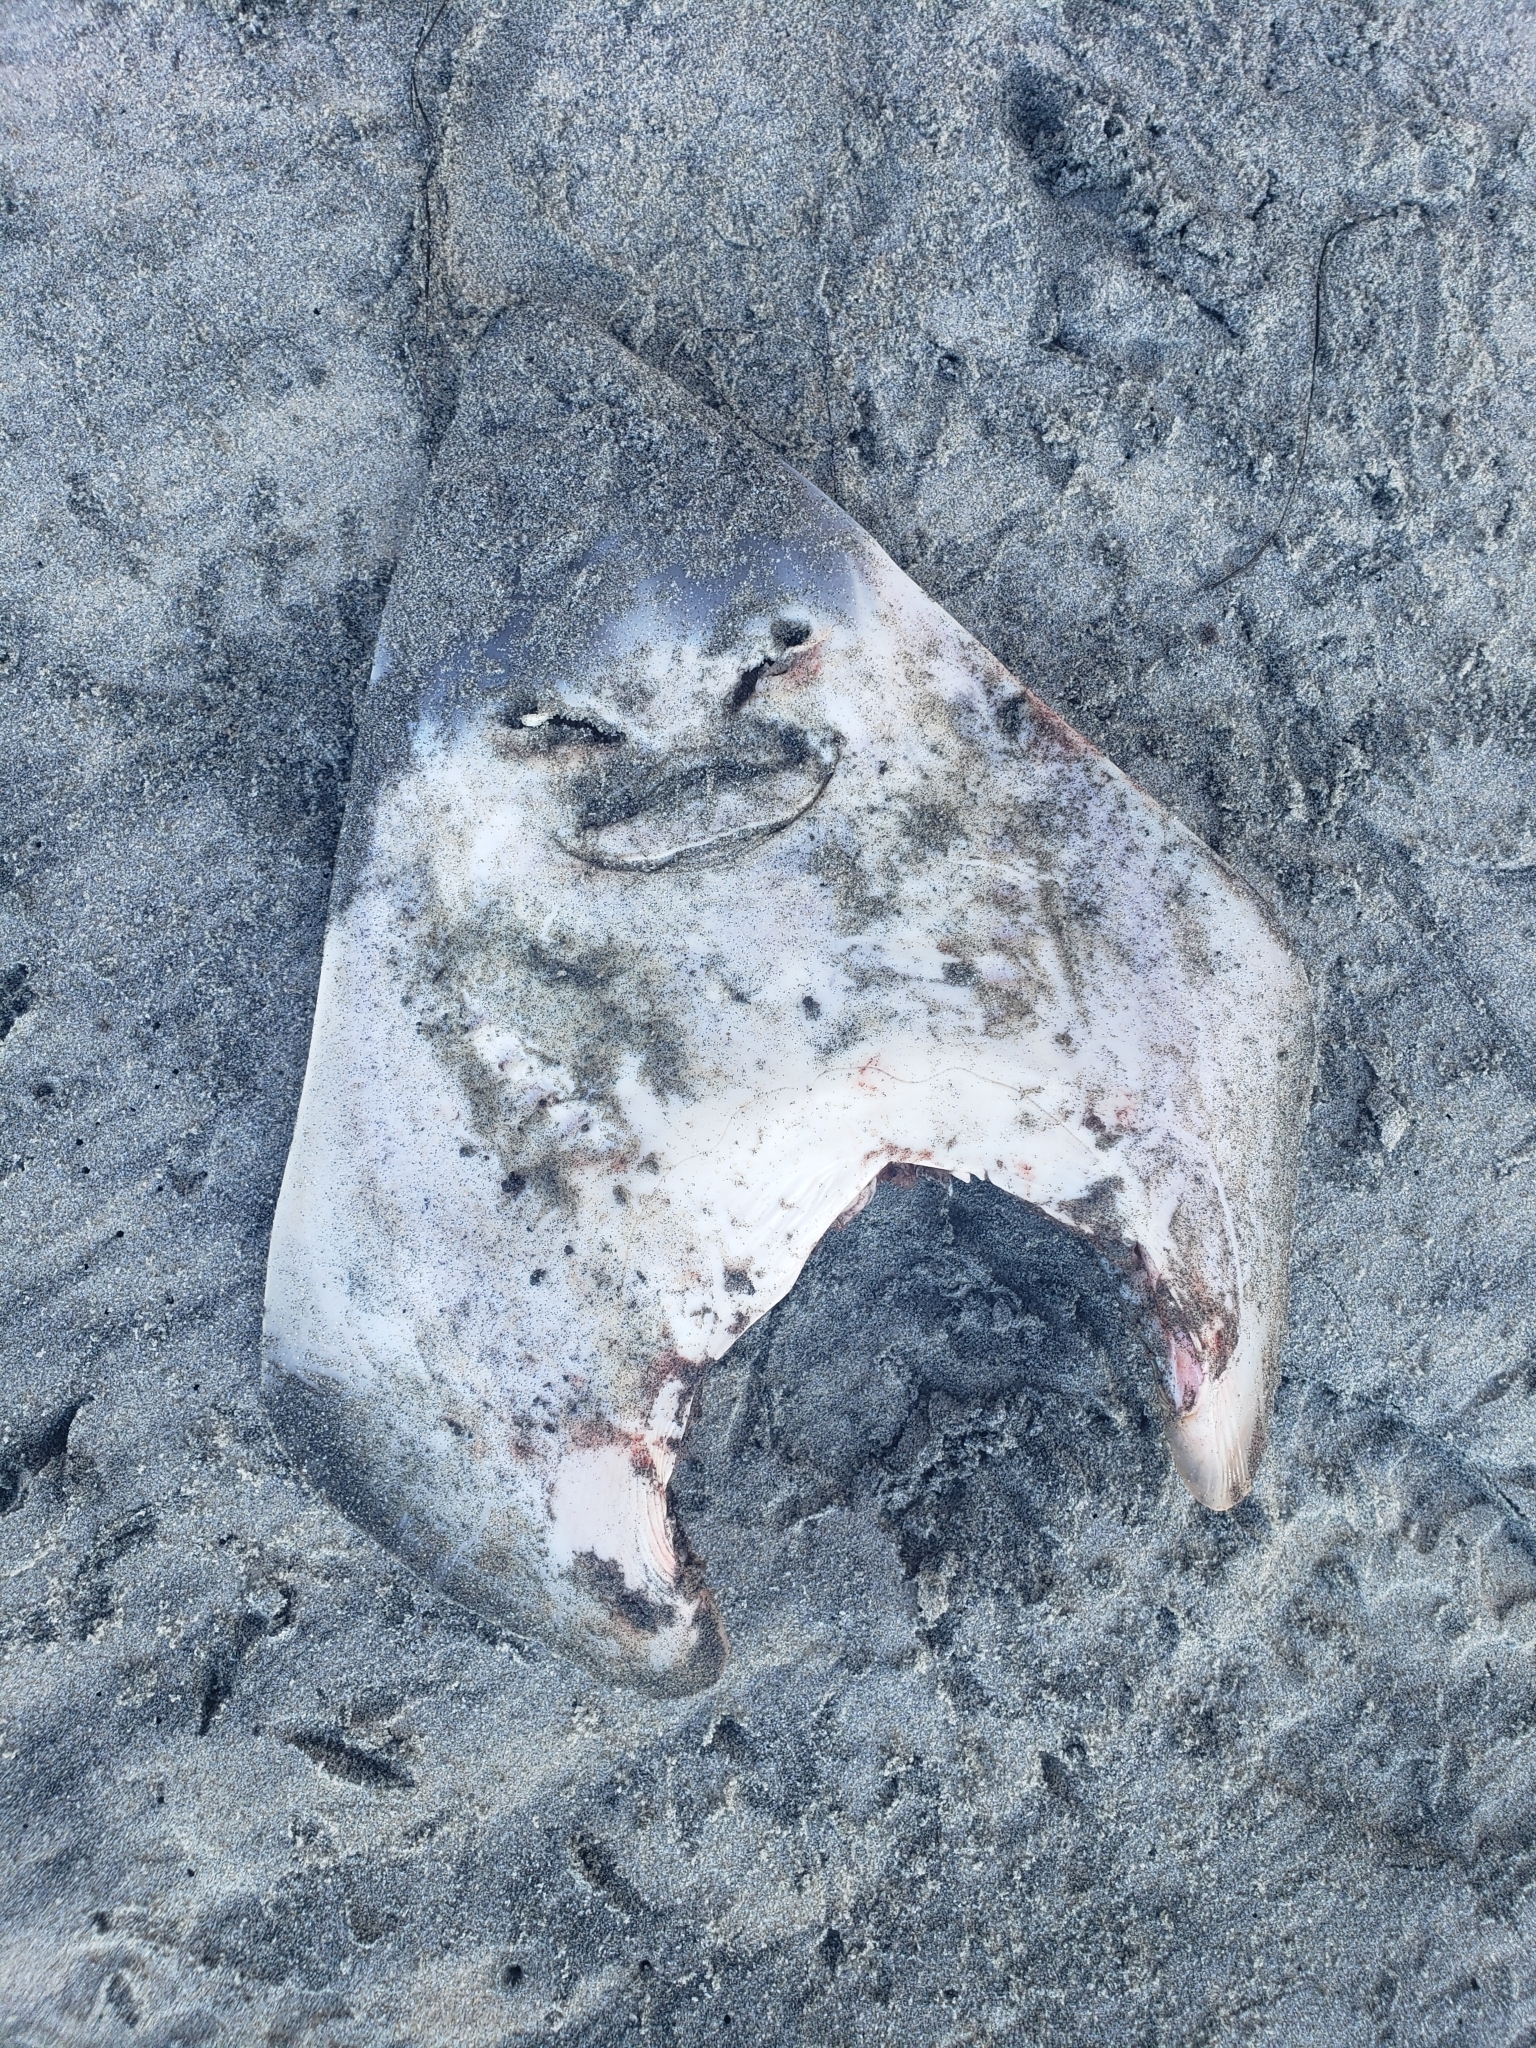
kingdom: Animalia
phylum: Chordata
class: Elasmobranchii
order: Rhinopristiformes
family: Rhinobatidae
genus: Pseudobatos
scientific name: Pseudobatos productus
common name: Shovelnose guitarfish
